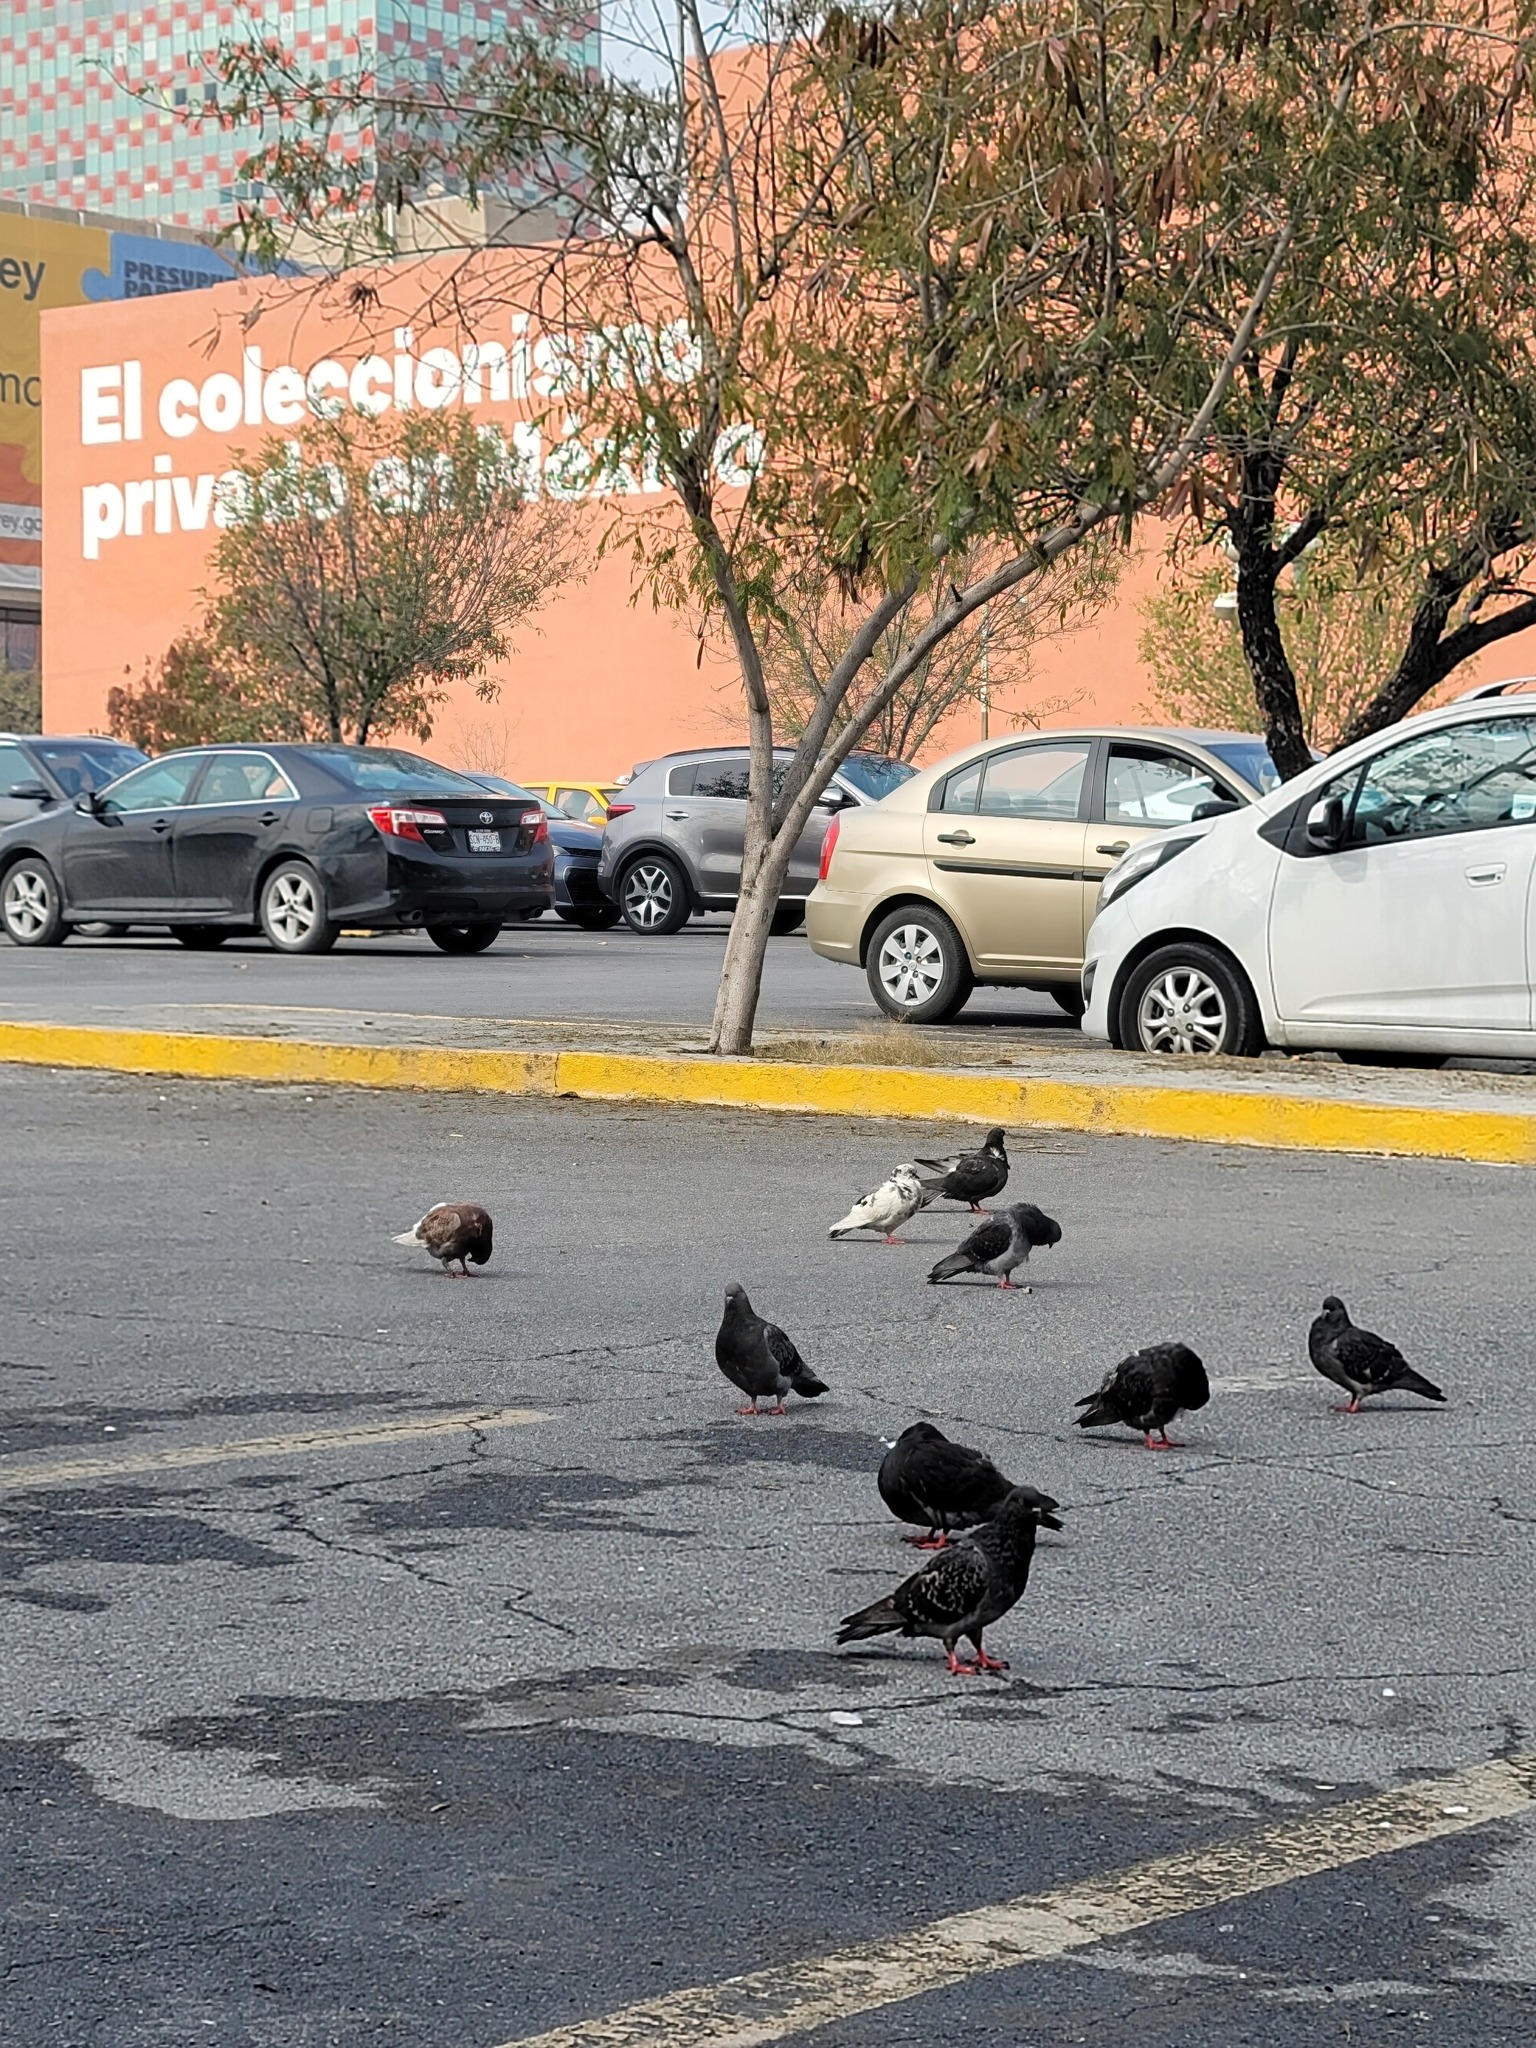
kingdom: Animalia
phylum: Chordata
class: Aves
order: Columbiformes
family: Columbidae
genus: Columba
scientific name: Columba livia
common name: Rock pigeon
